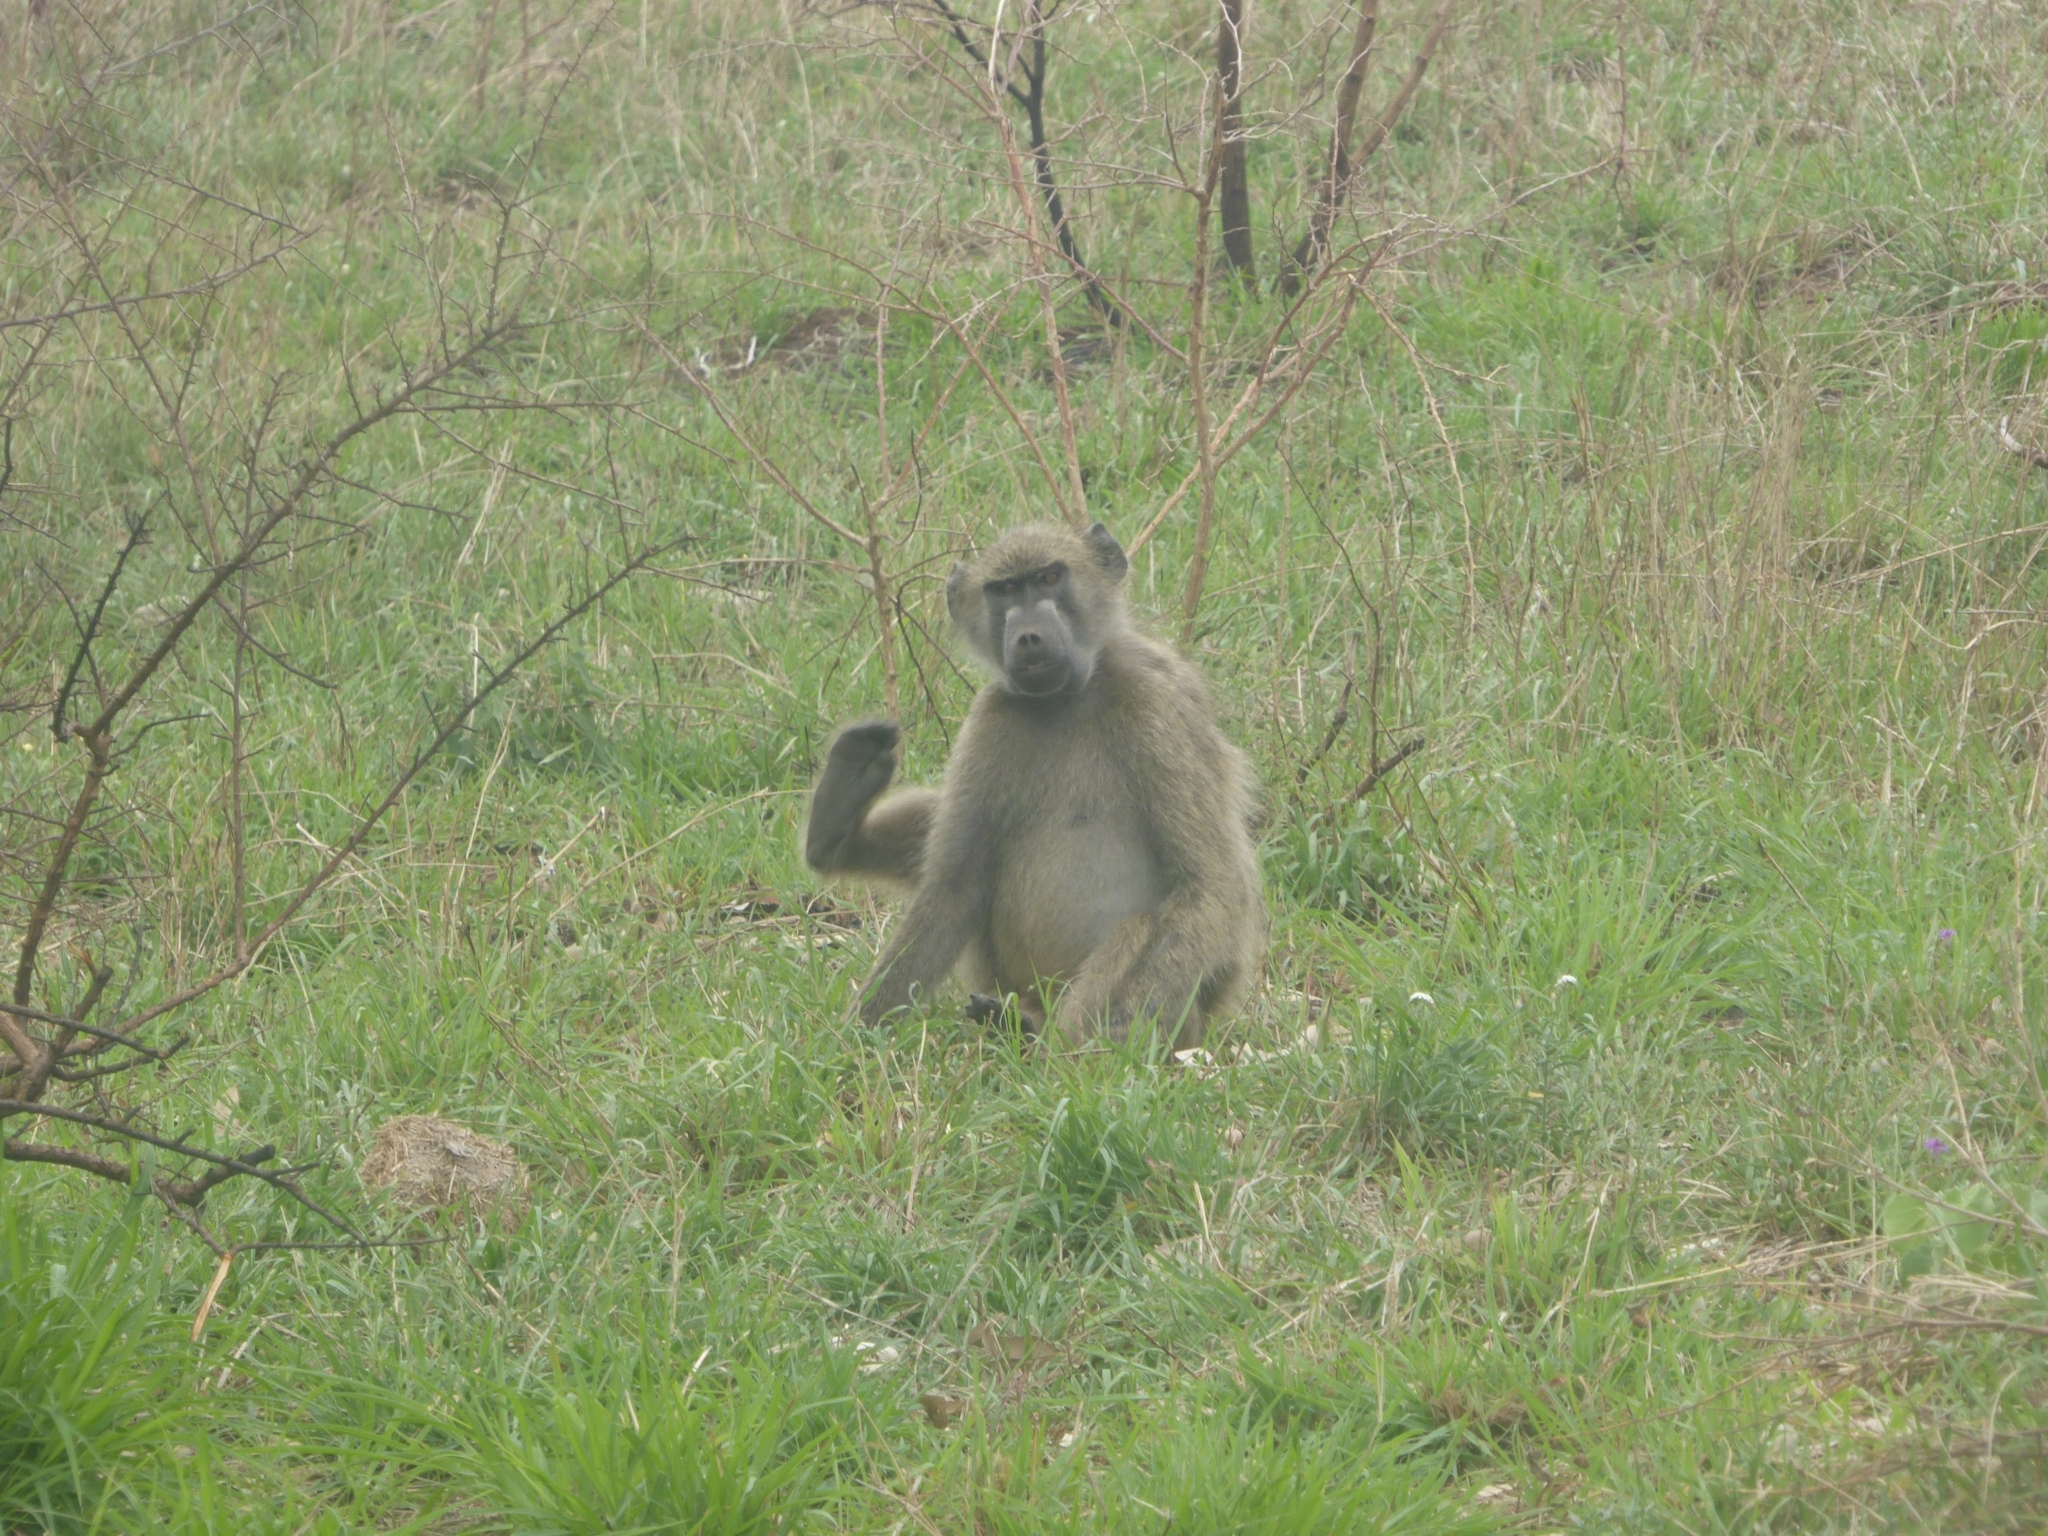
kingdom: Animalia
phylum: Chordata
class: Mammalia
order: Primates
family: Cercopithecidae
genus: Papio
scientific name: Papio ursinus
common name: Chacma baboon
